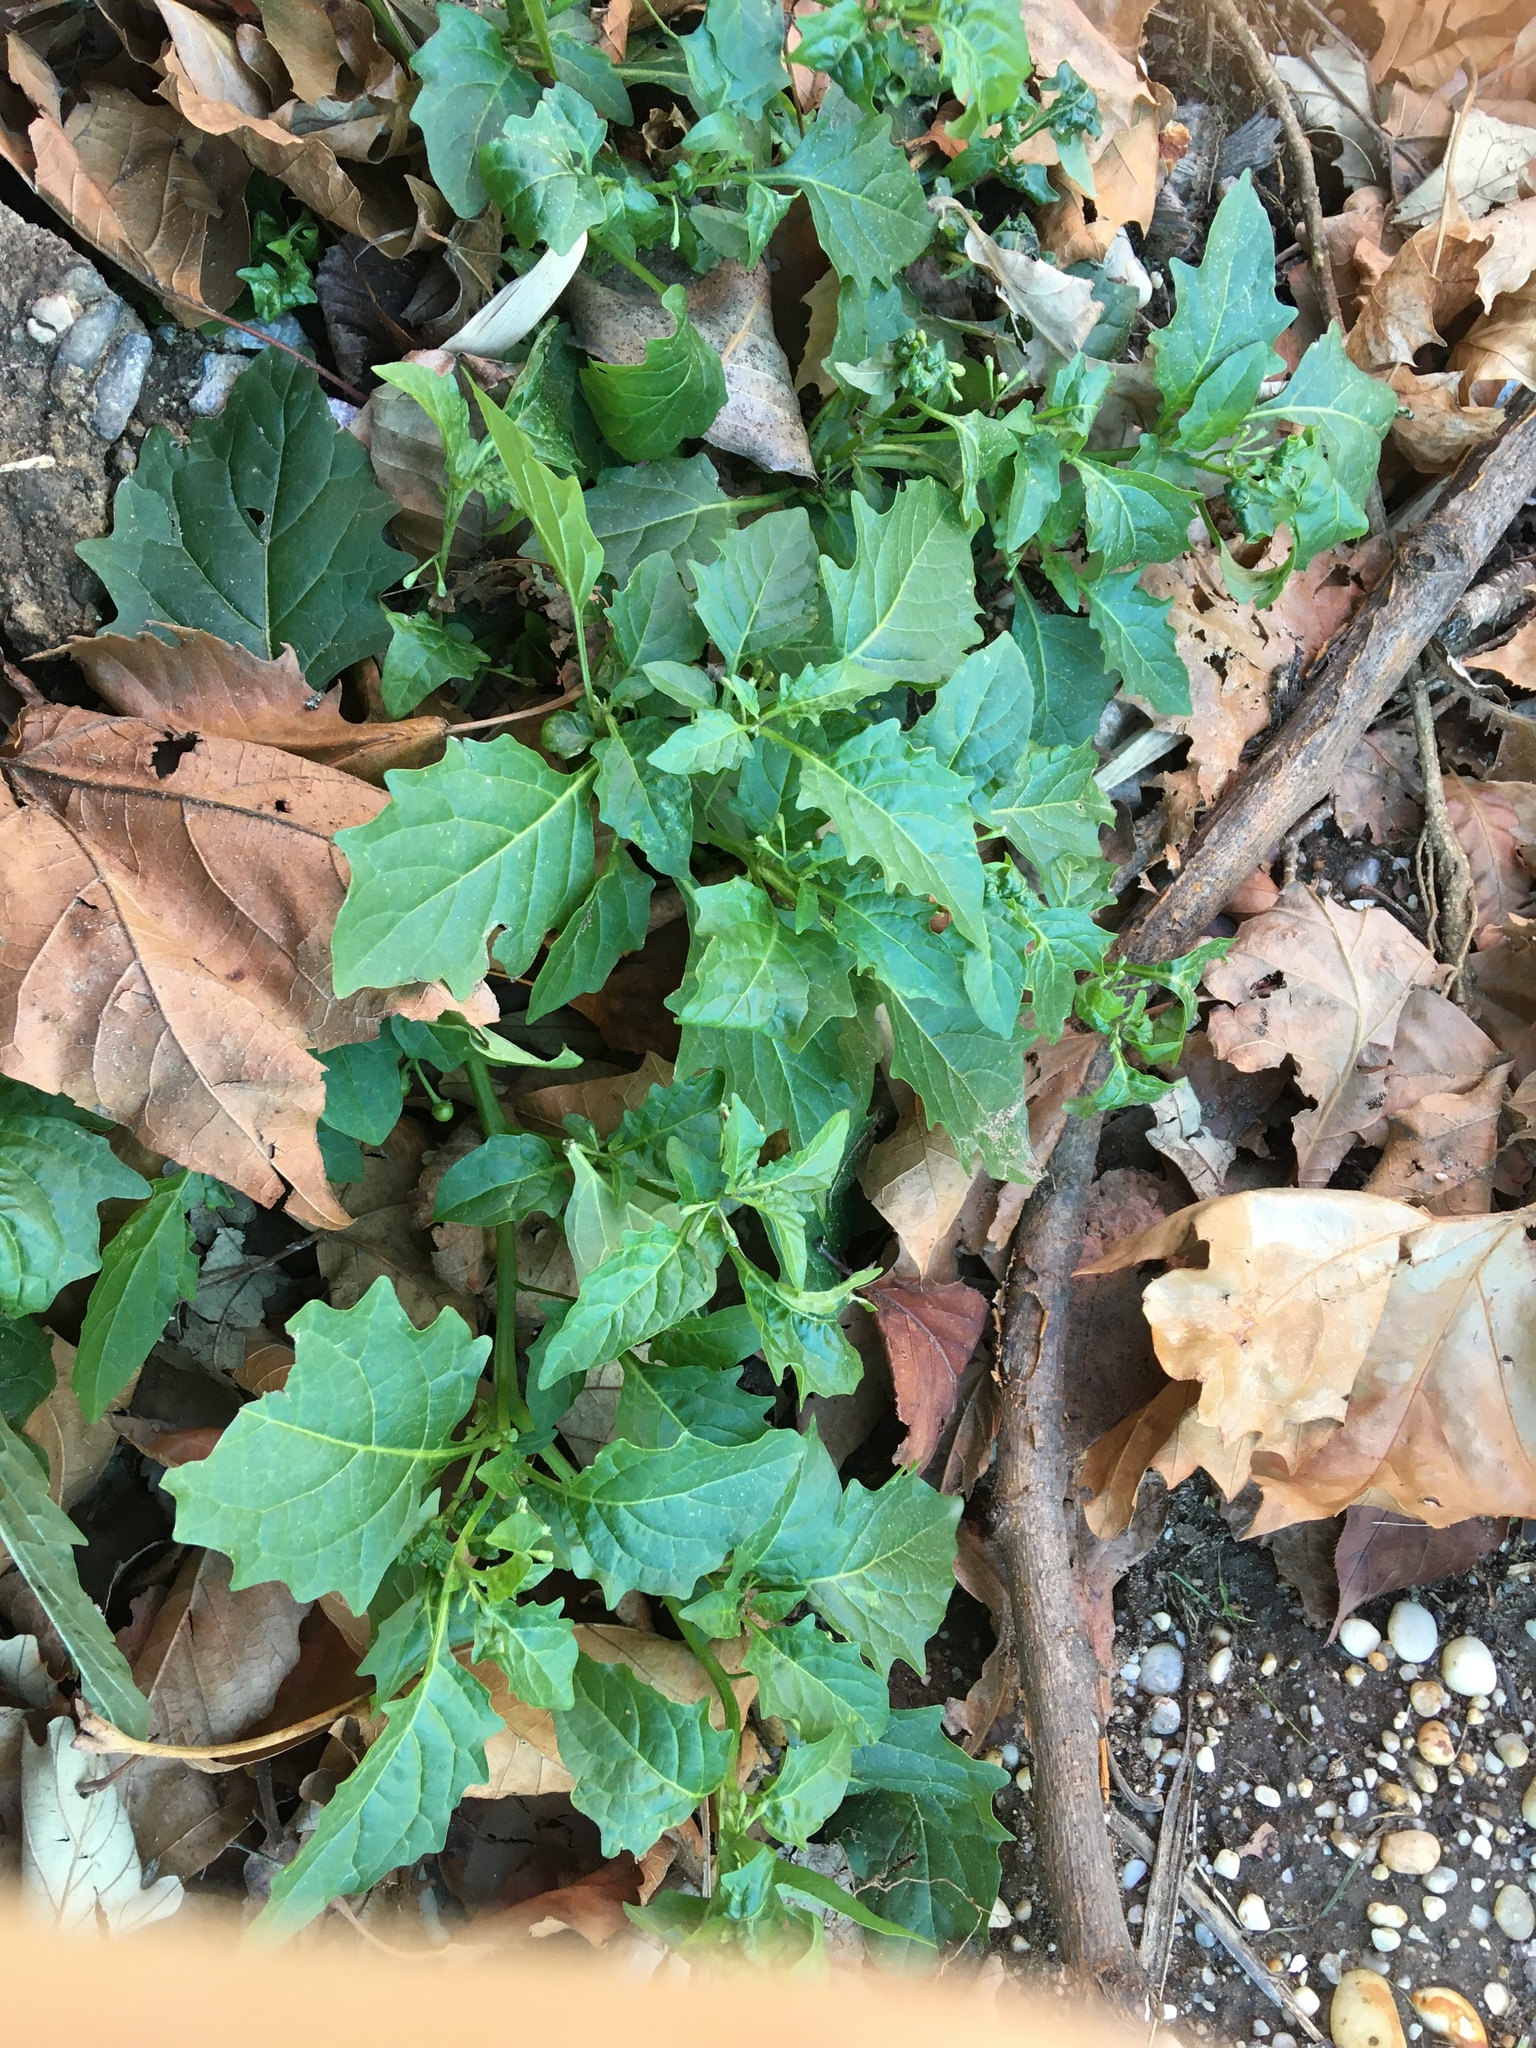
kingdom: Plantae
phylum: Tracheophyta
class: Magnoliopsida
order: Solanales
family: Solanaceae
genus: Solanum
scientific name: Solanum emulans
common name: Eastern black nightshade
